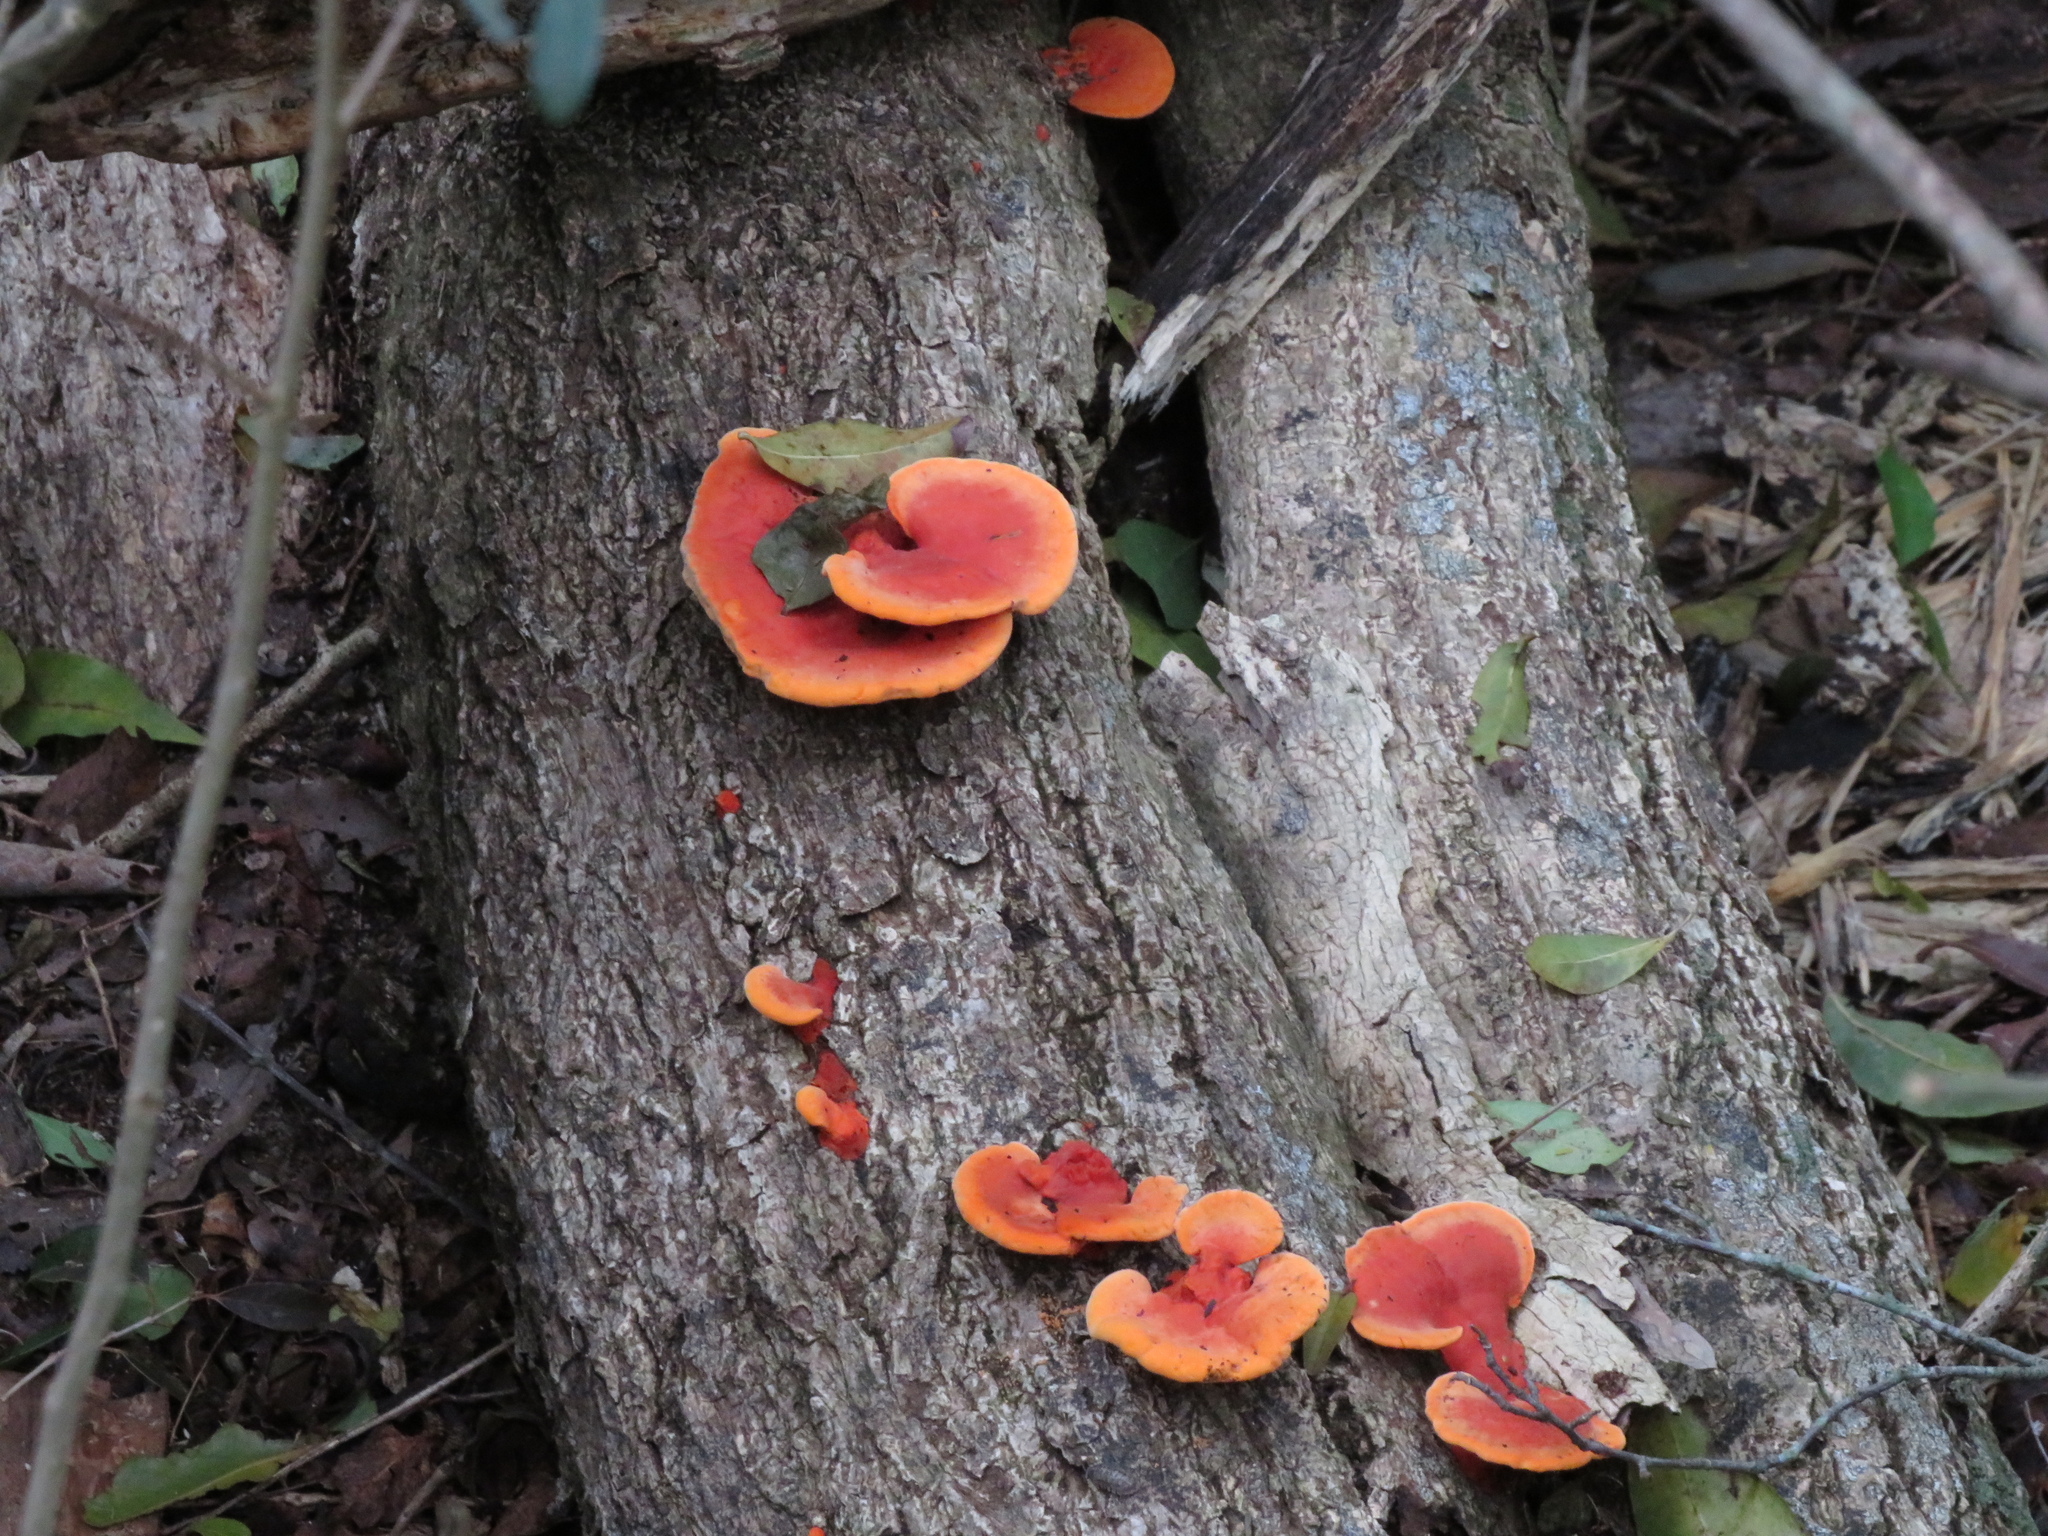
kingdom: Fungi
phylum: Basidiomycota
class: Agaricomycetes
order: Polyporales
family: Polyporaceae
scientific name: Polyporaceae
